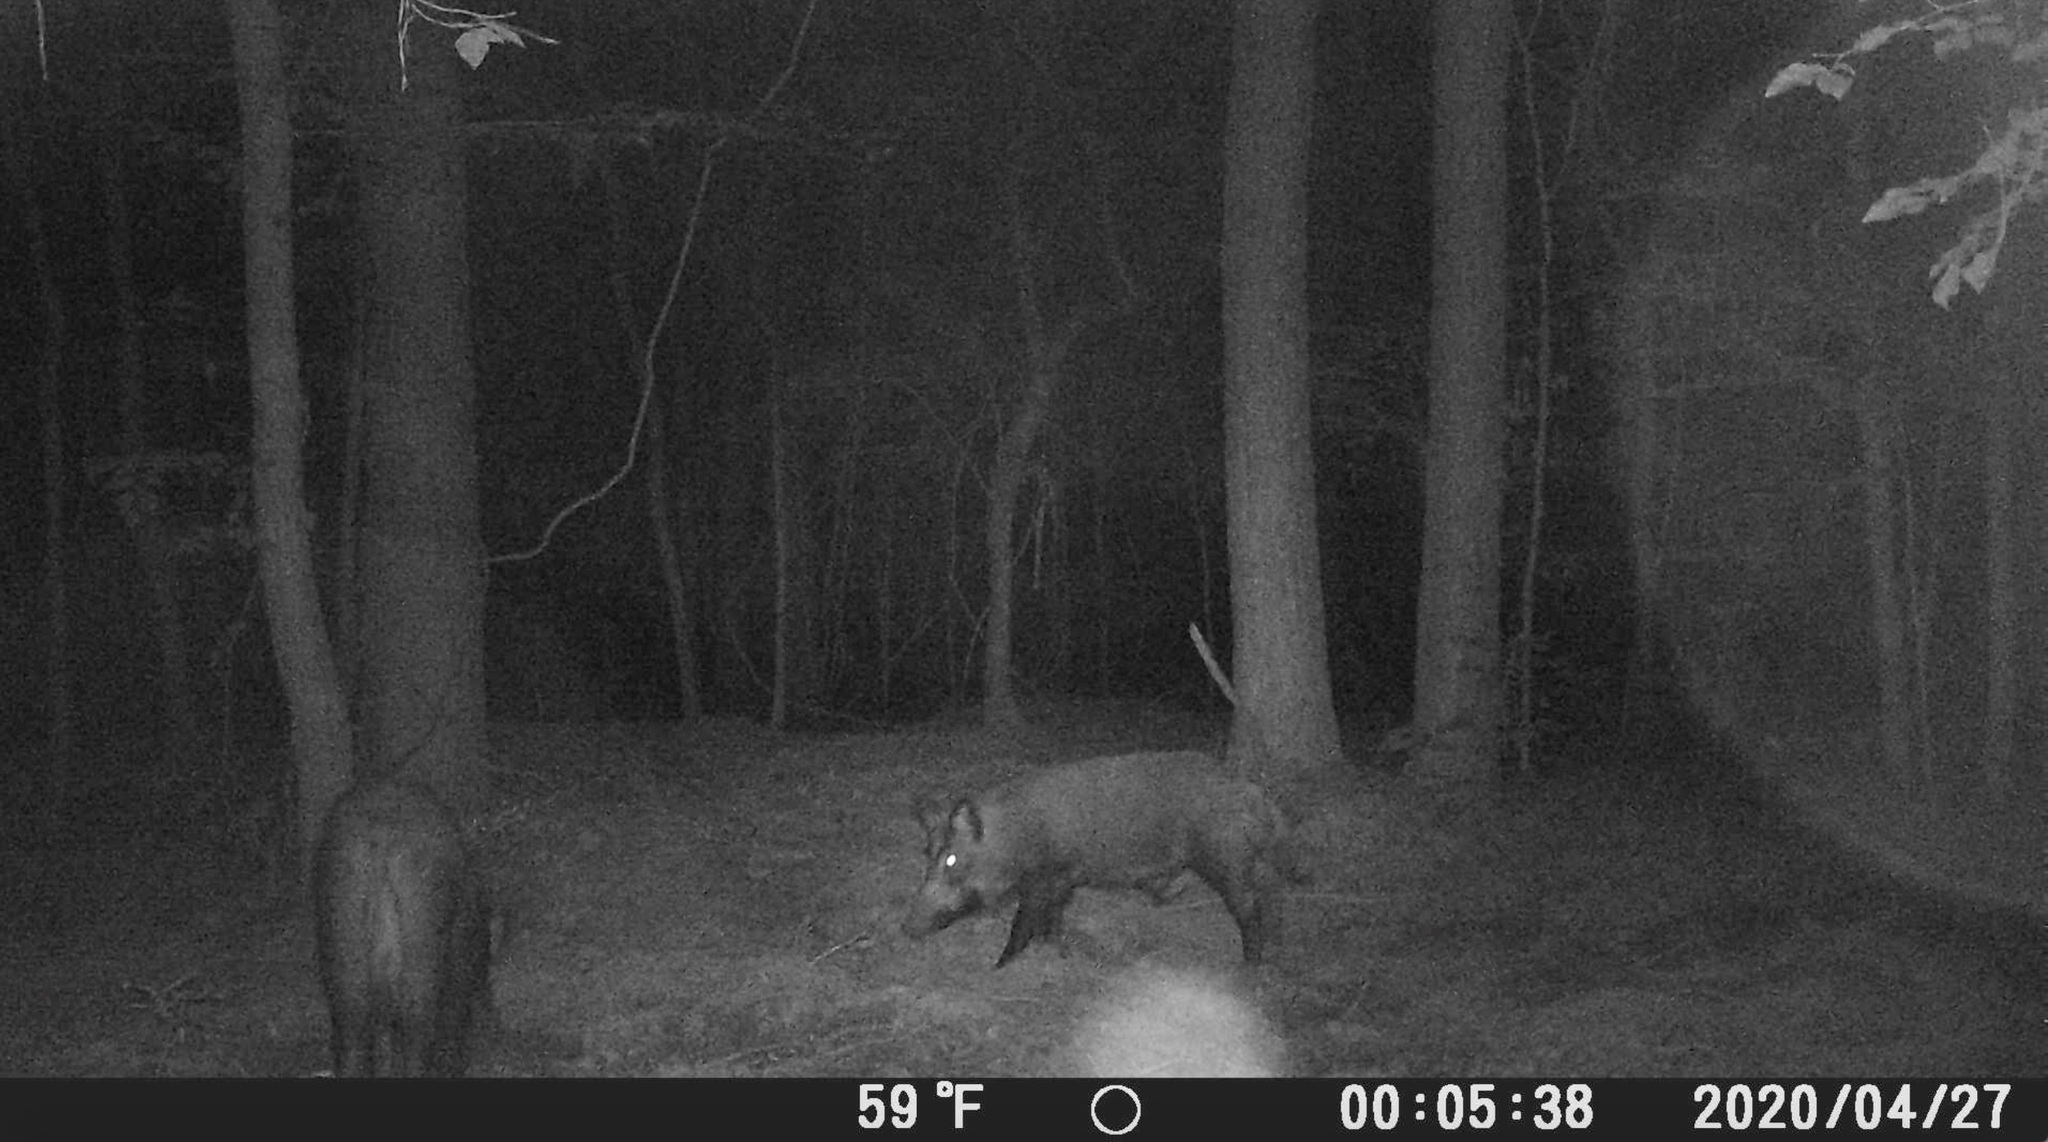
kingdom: Animalia
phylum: Chordata
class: Mammalia
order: Artiodactyla
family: Suidae
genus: Sus
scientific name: Sus scrofa
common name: Wild boar
